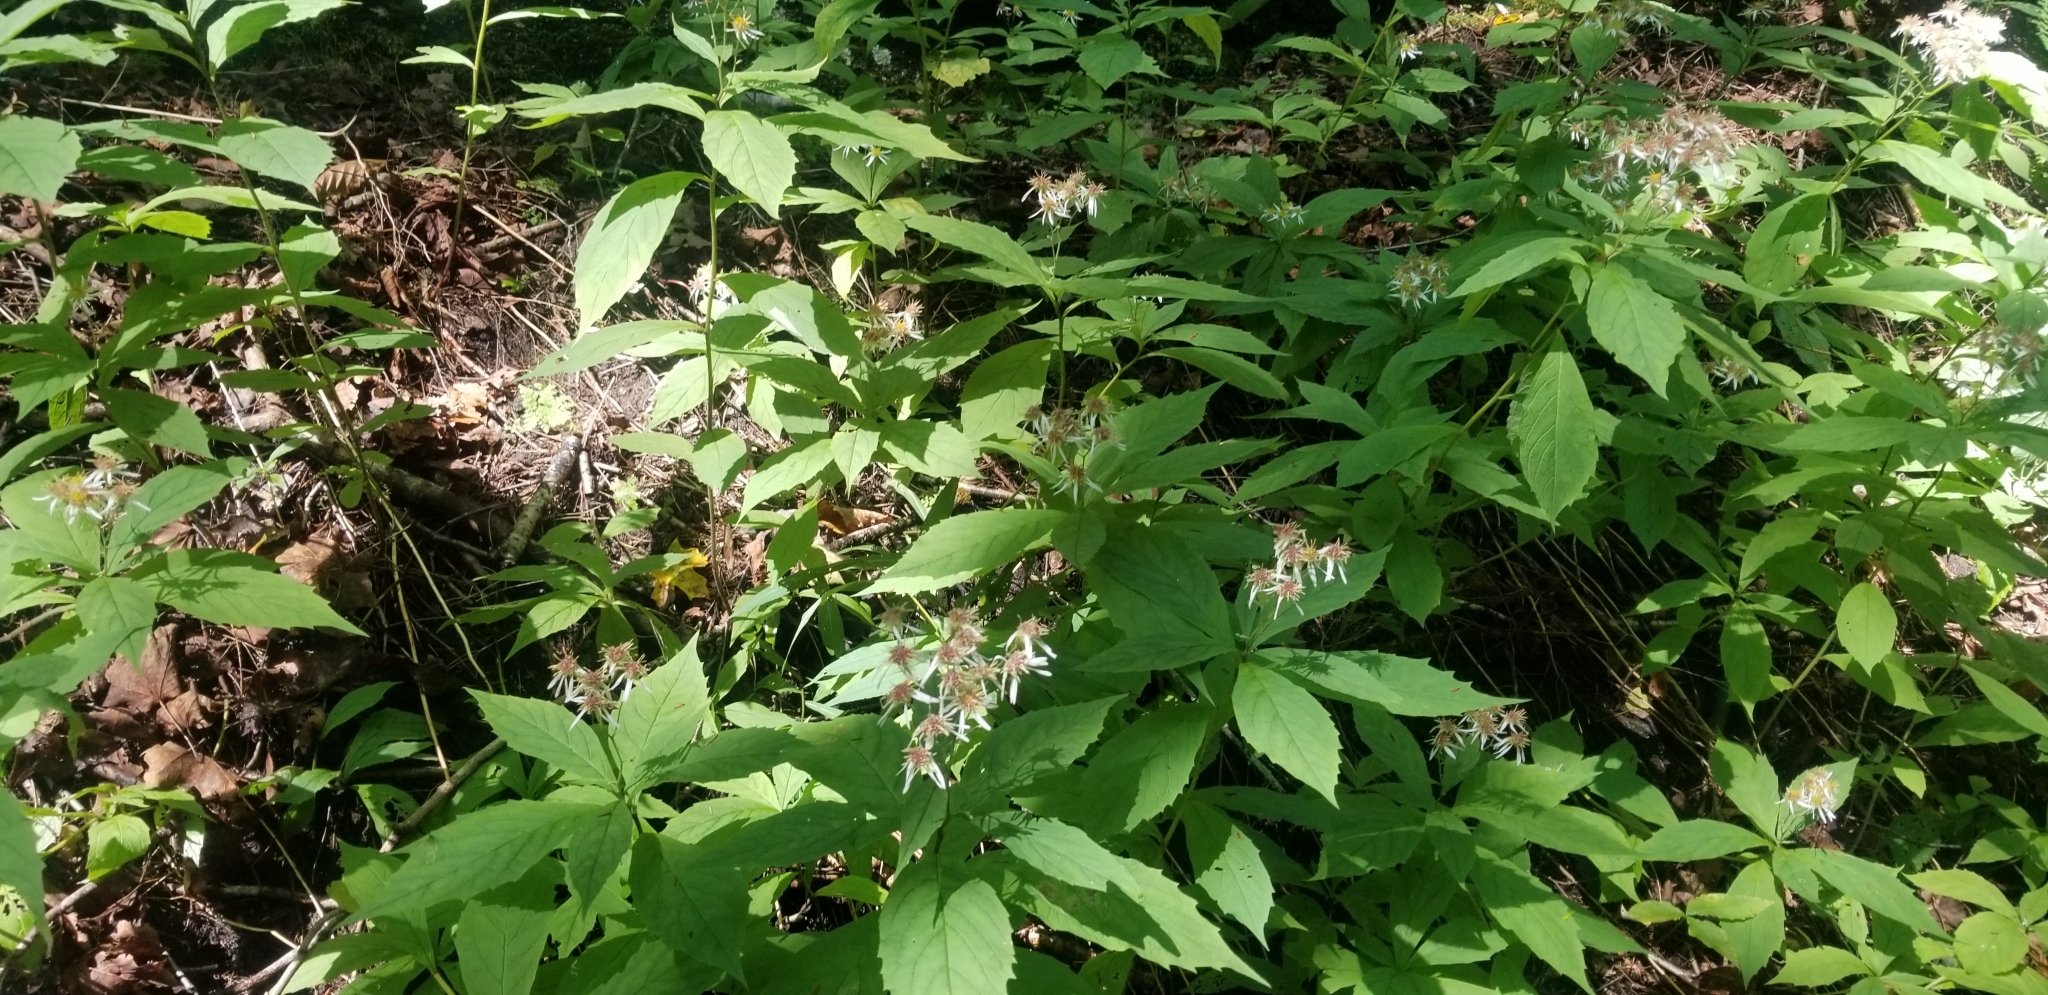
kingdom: Plantae
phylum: Tracheophyta
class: Magnoliopsida
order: Asterales
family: Asteraceae
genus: Oclemena
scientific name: Oclemena acuminata
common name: Mountain aster
